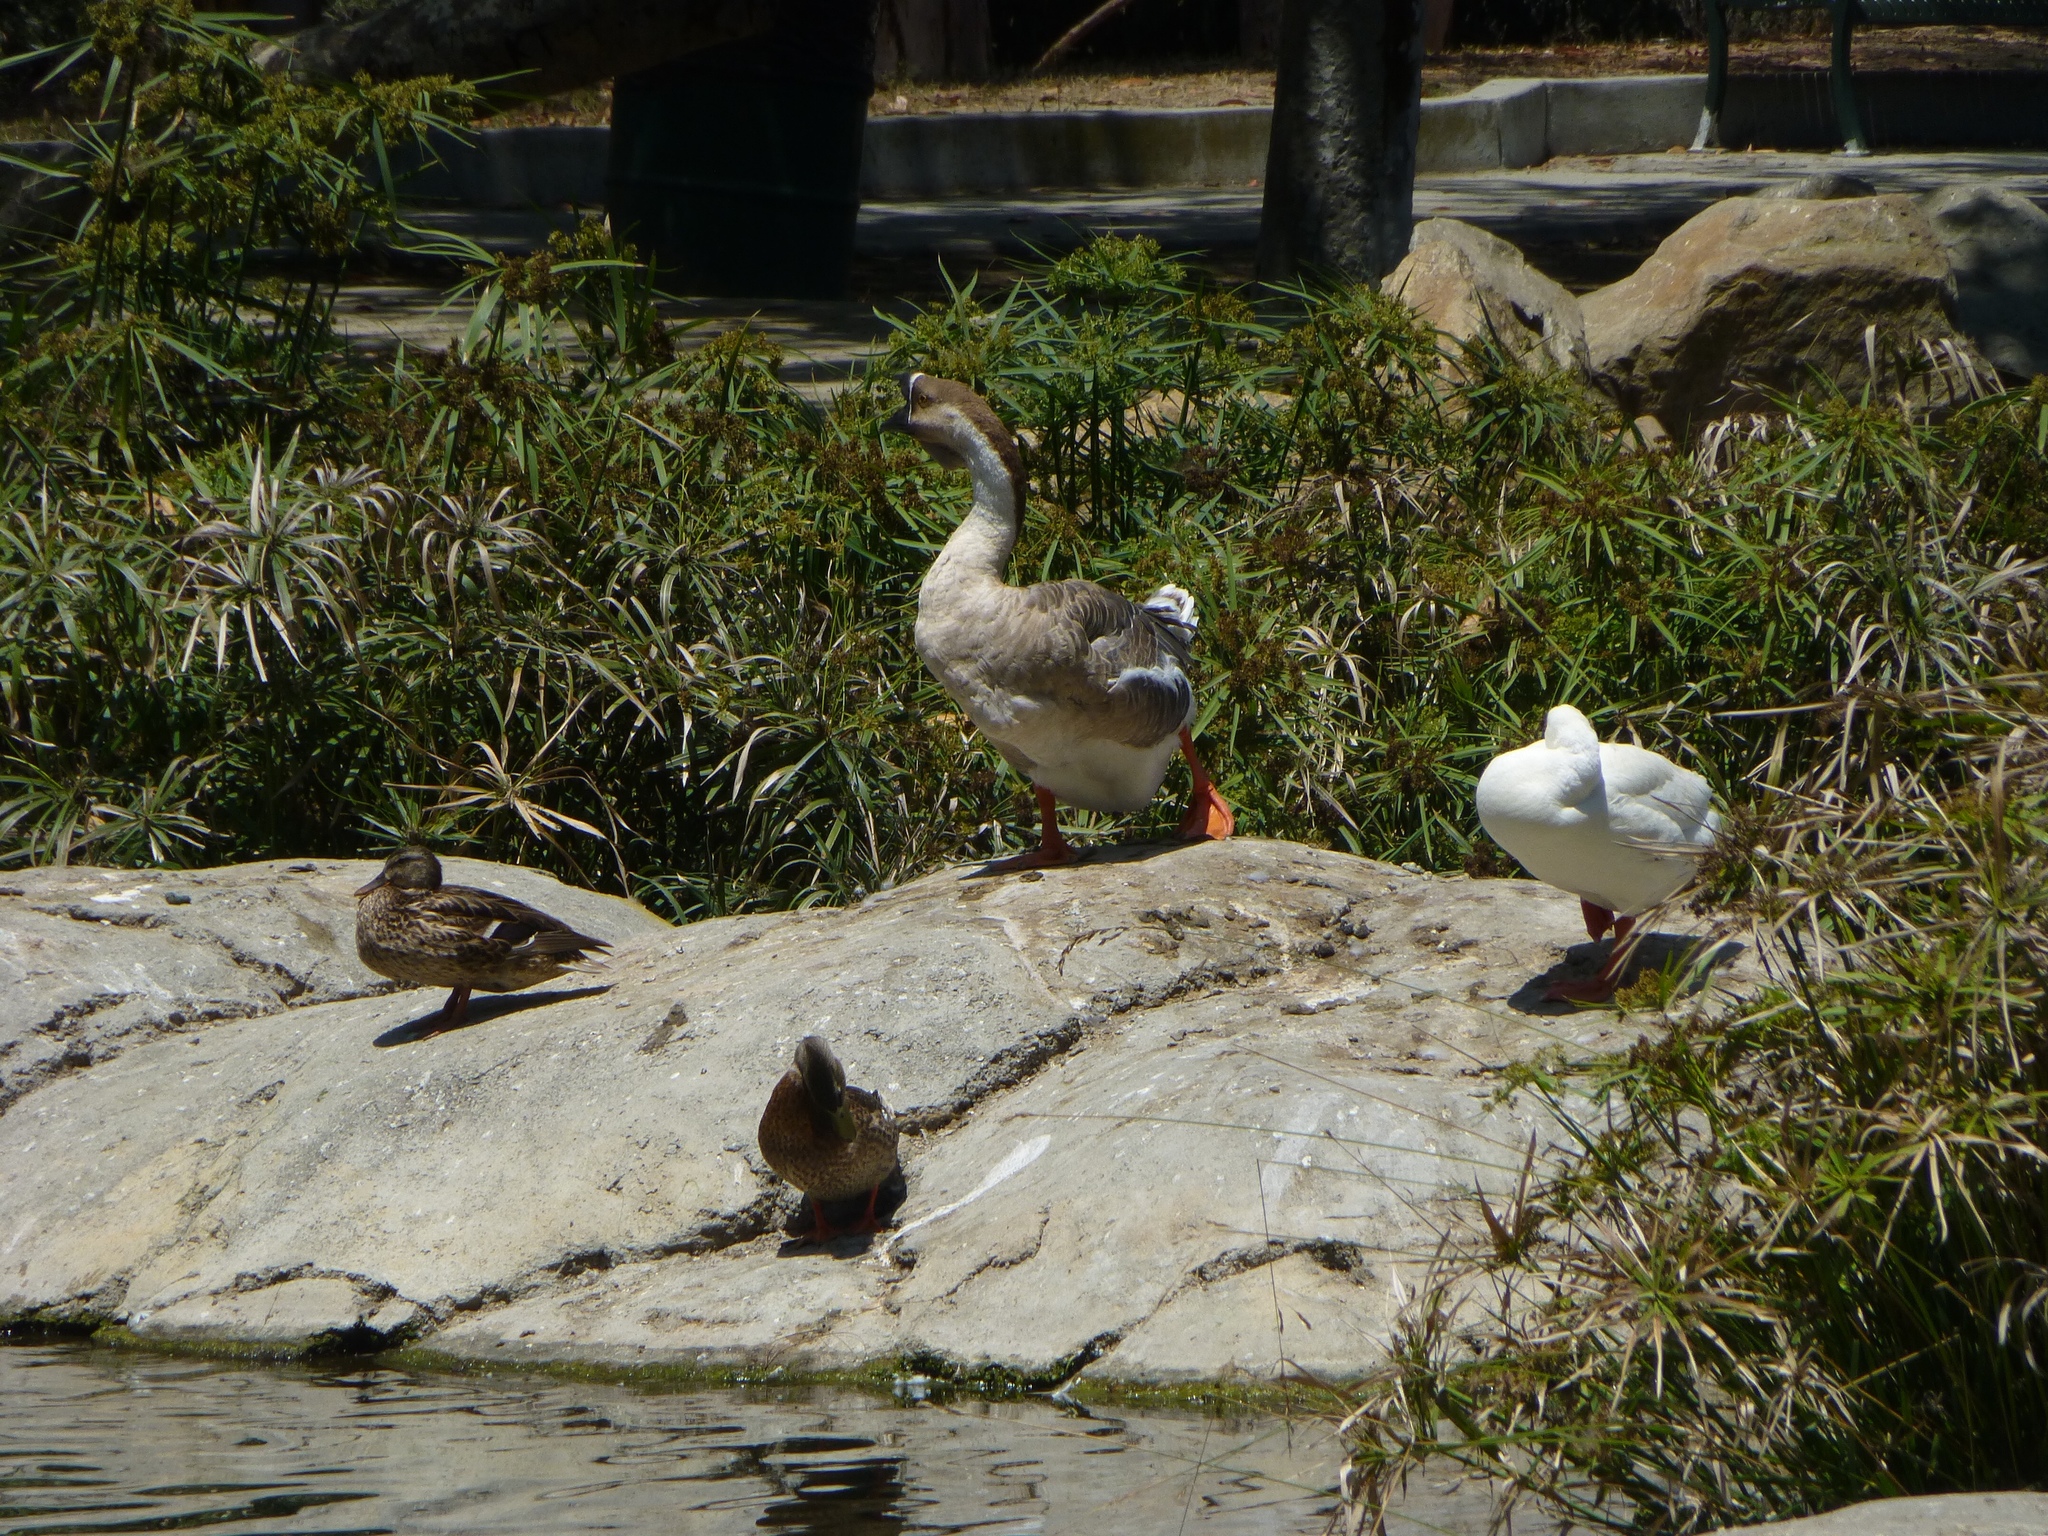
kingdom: Animalia
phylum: Chordata
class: Aves
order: Anseriformes
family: Anatidae
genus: Anser
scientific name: Anser cygnoides
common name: Swan goose
